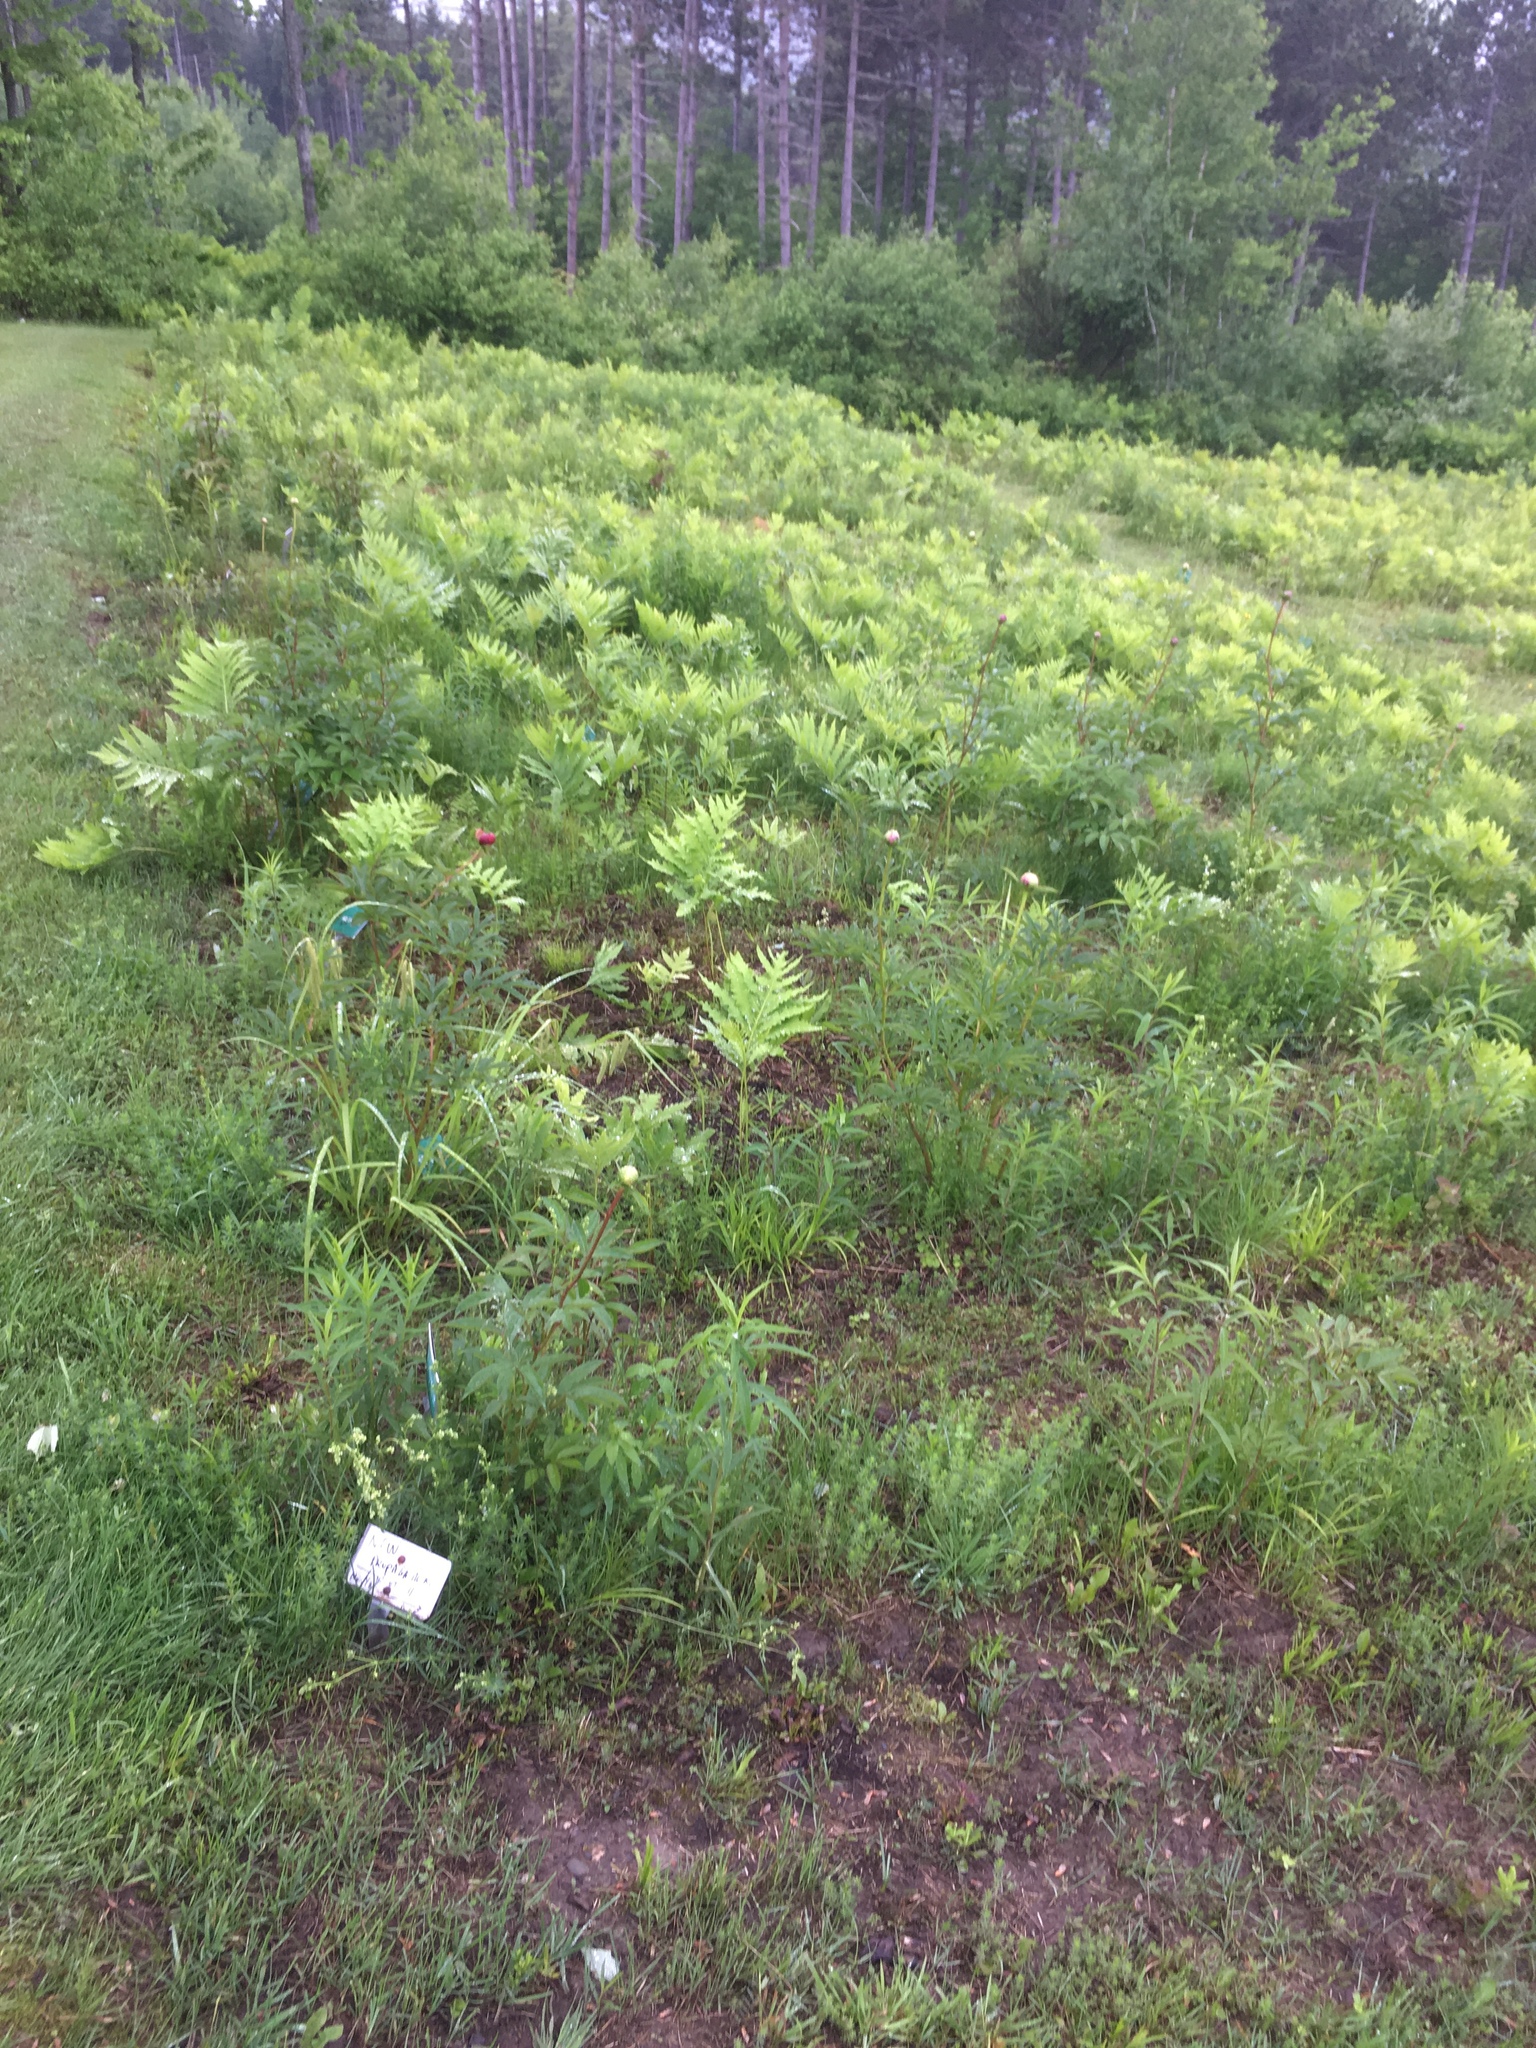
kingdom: Plantae
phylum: Tracheophyta
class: Polypodiopsida
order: Polypodiales
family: Onocleaceae
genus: Onoclea
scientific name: Onoclea sensibilis
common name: Sensitive fern
